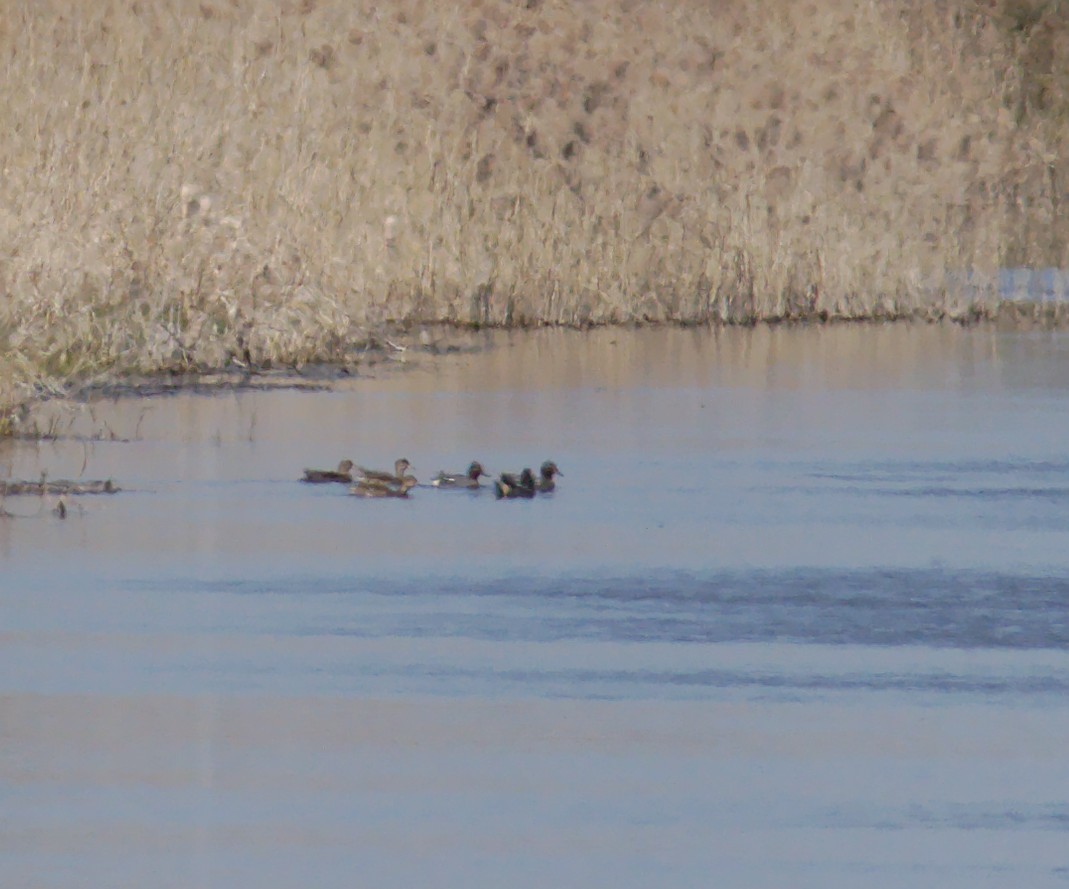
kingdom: Animalia
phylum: Chordata
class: Aves
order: Anseriformes
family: Anatidae
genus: Anas
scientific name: Anas crecca
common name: Eurasian teal
